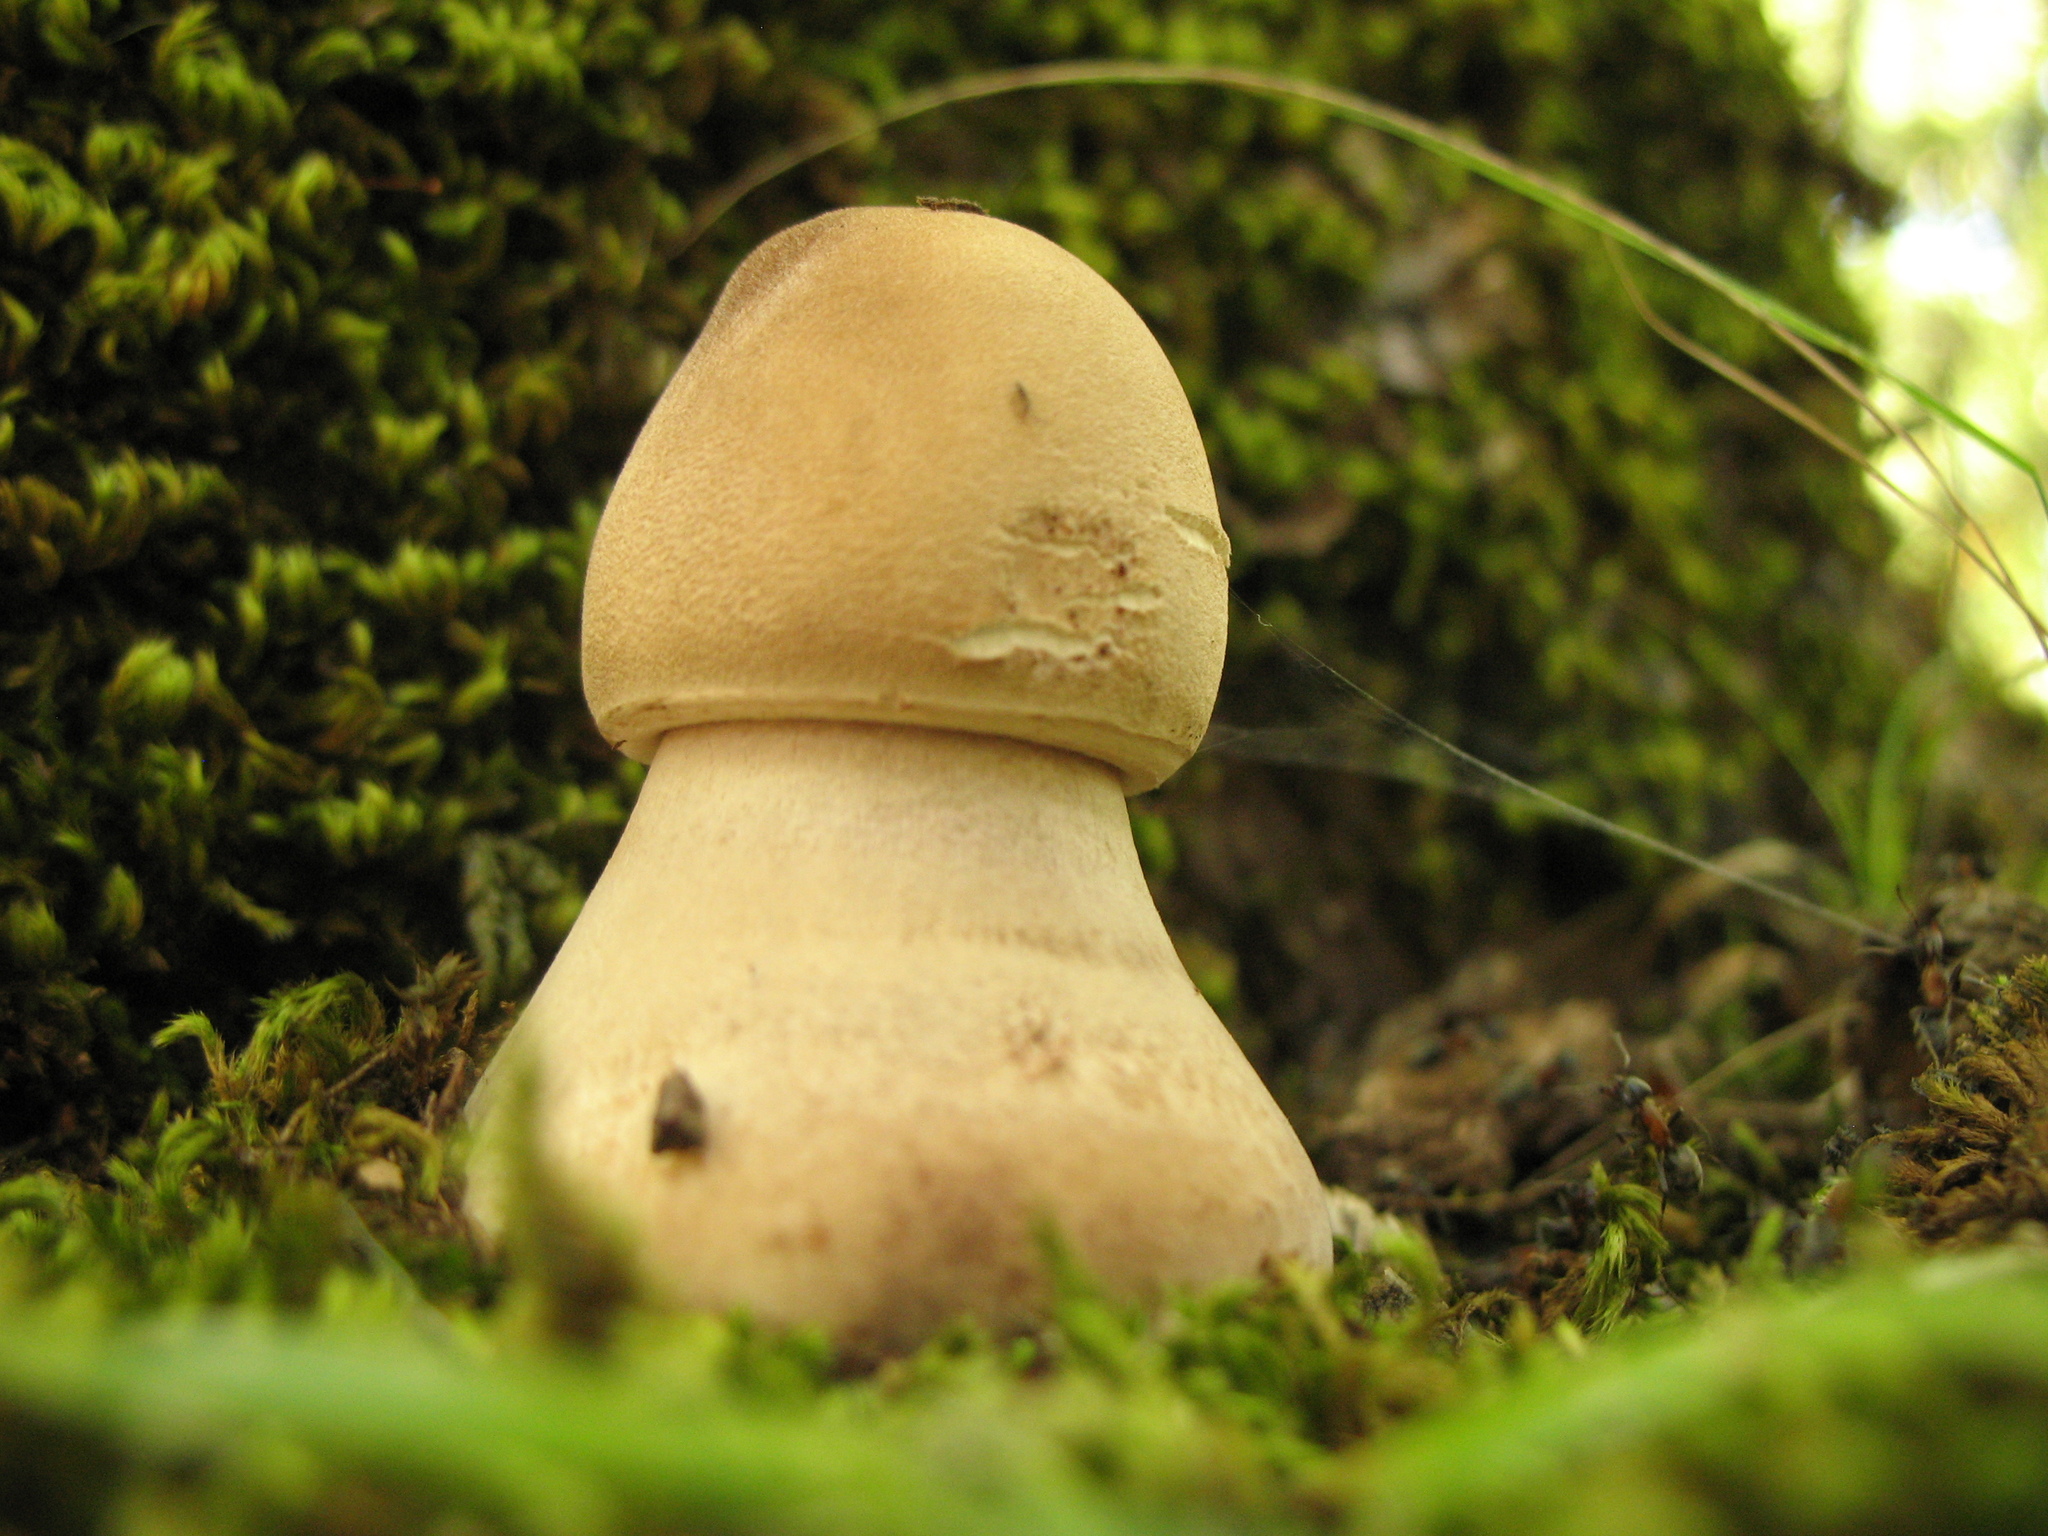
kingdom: Fungi
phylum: Basidiomycota
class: Agaricomycetes
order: Agaricales
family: Agaricaceae
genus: Macrolepiota
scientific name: Macrolepiota procera
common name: Parasol
